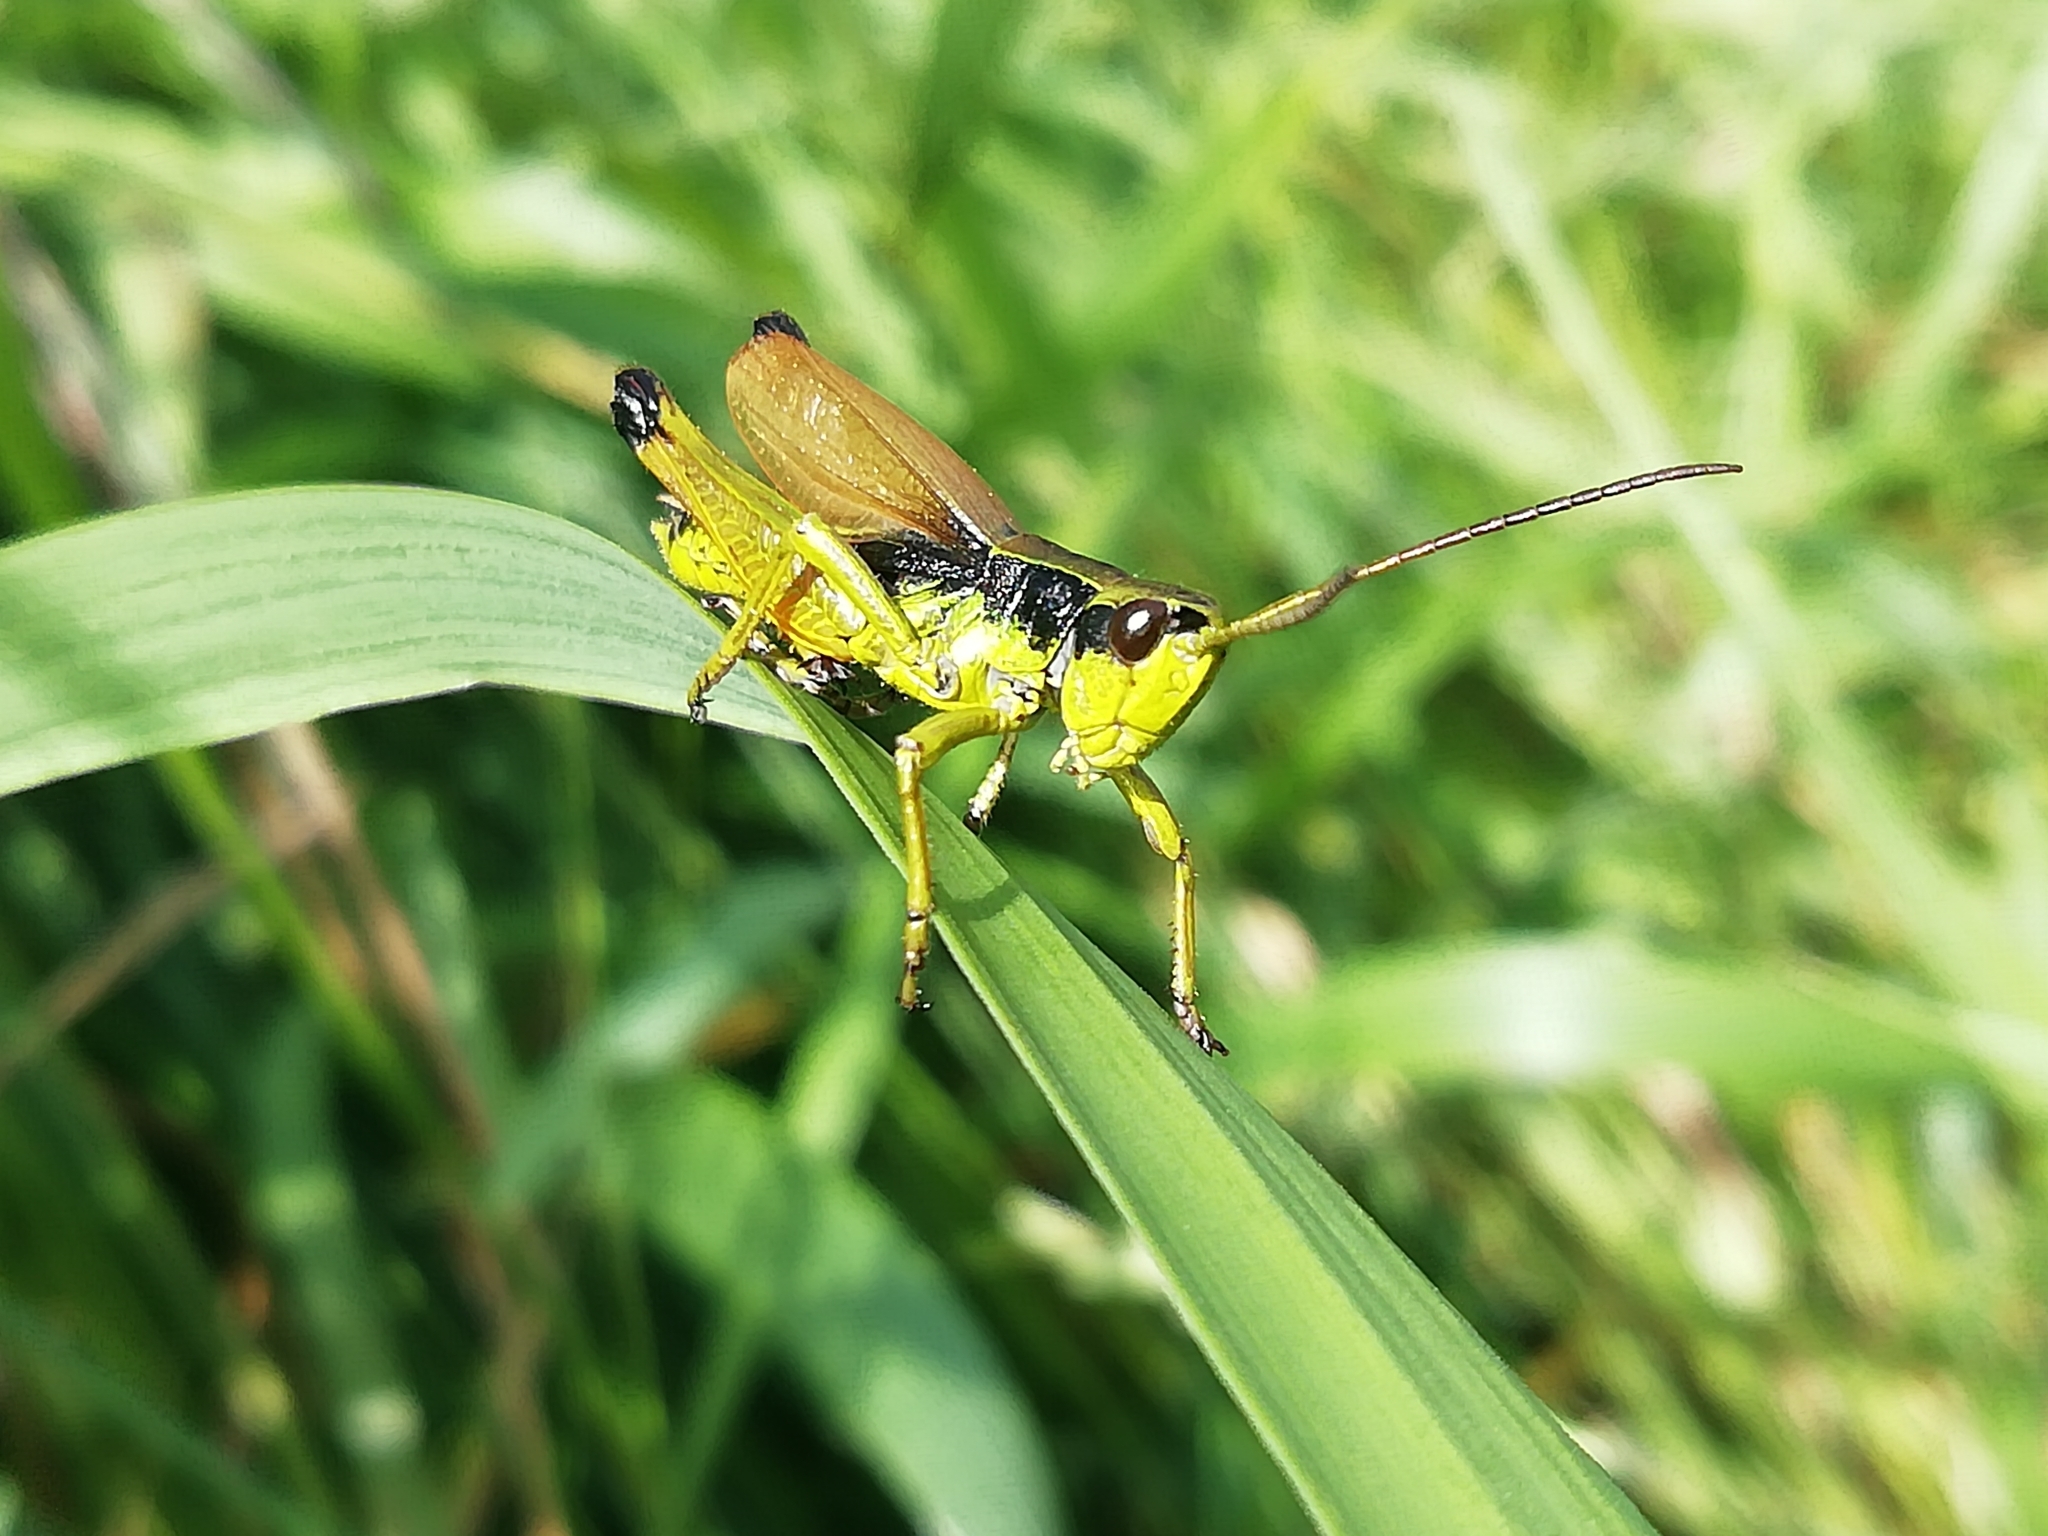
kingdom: Animalia
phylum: Arthropoda
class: Insecta
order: Orthoptera
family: Acrididae
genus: Podismopsis
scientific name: Podismopsis poppiusi
